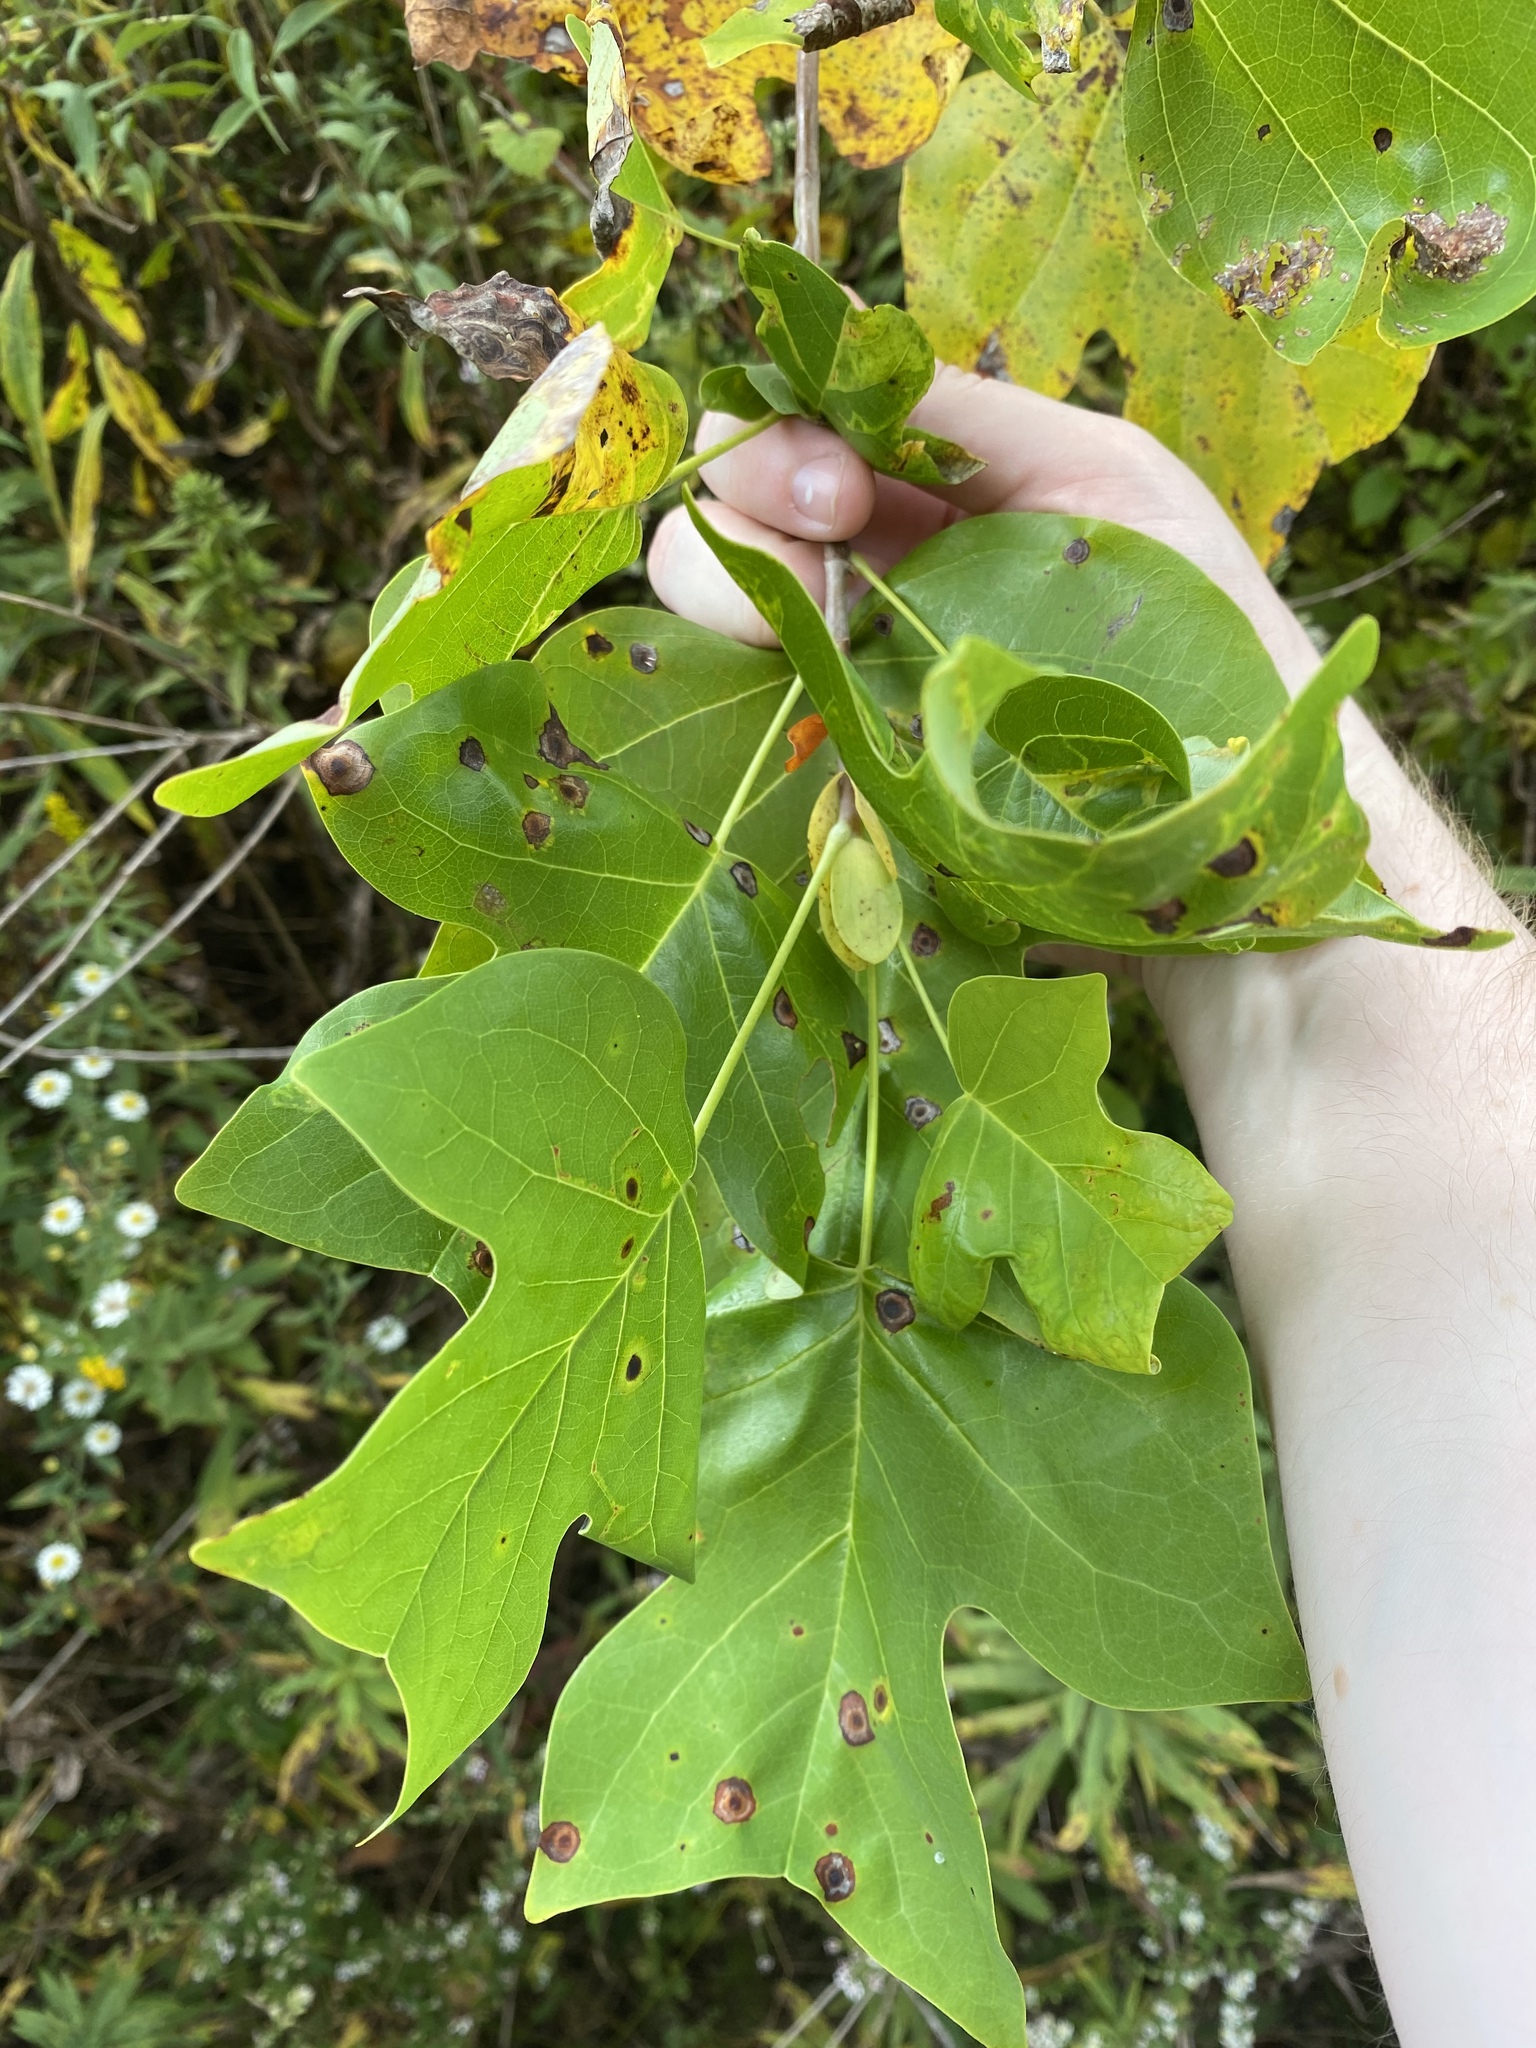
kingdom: Animalia
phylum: Arthropoda
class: Insecta
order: Diptera
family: Cecidomyiidae
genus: Resseliella
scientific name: Resseliella liriodendri
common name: Tulip tree leaf spot gall midge
